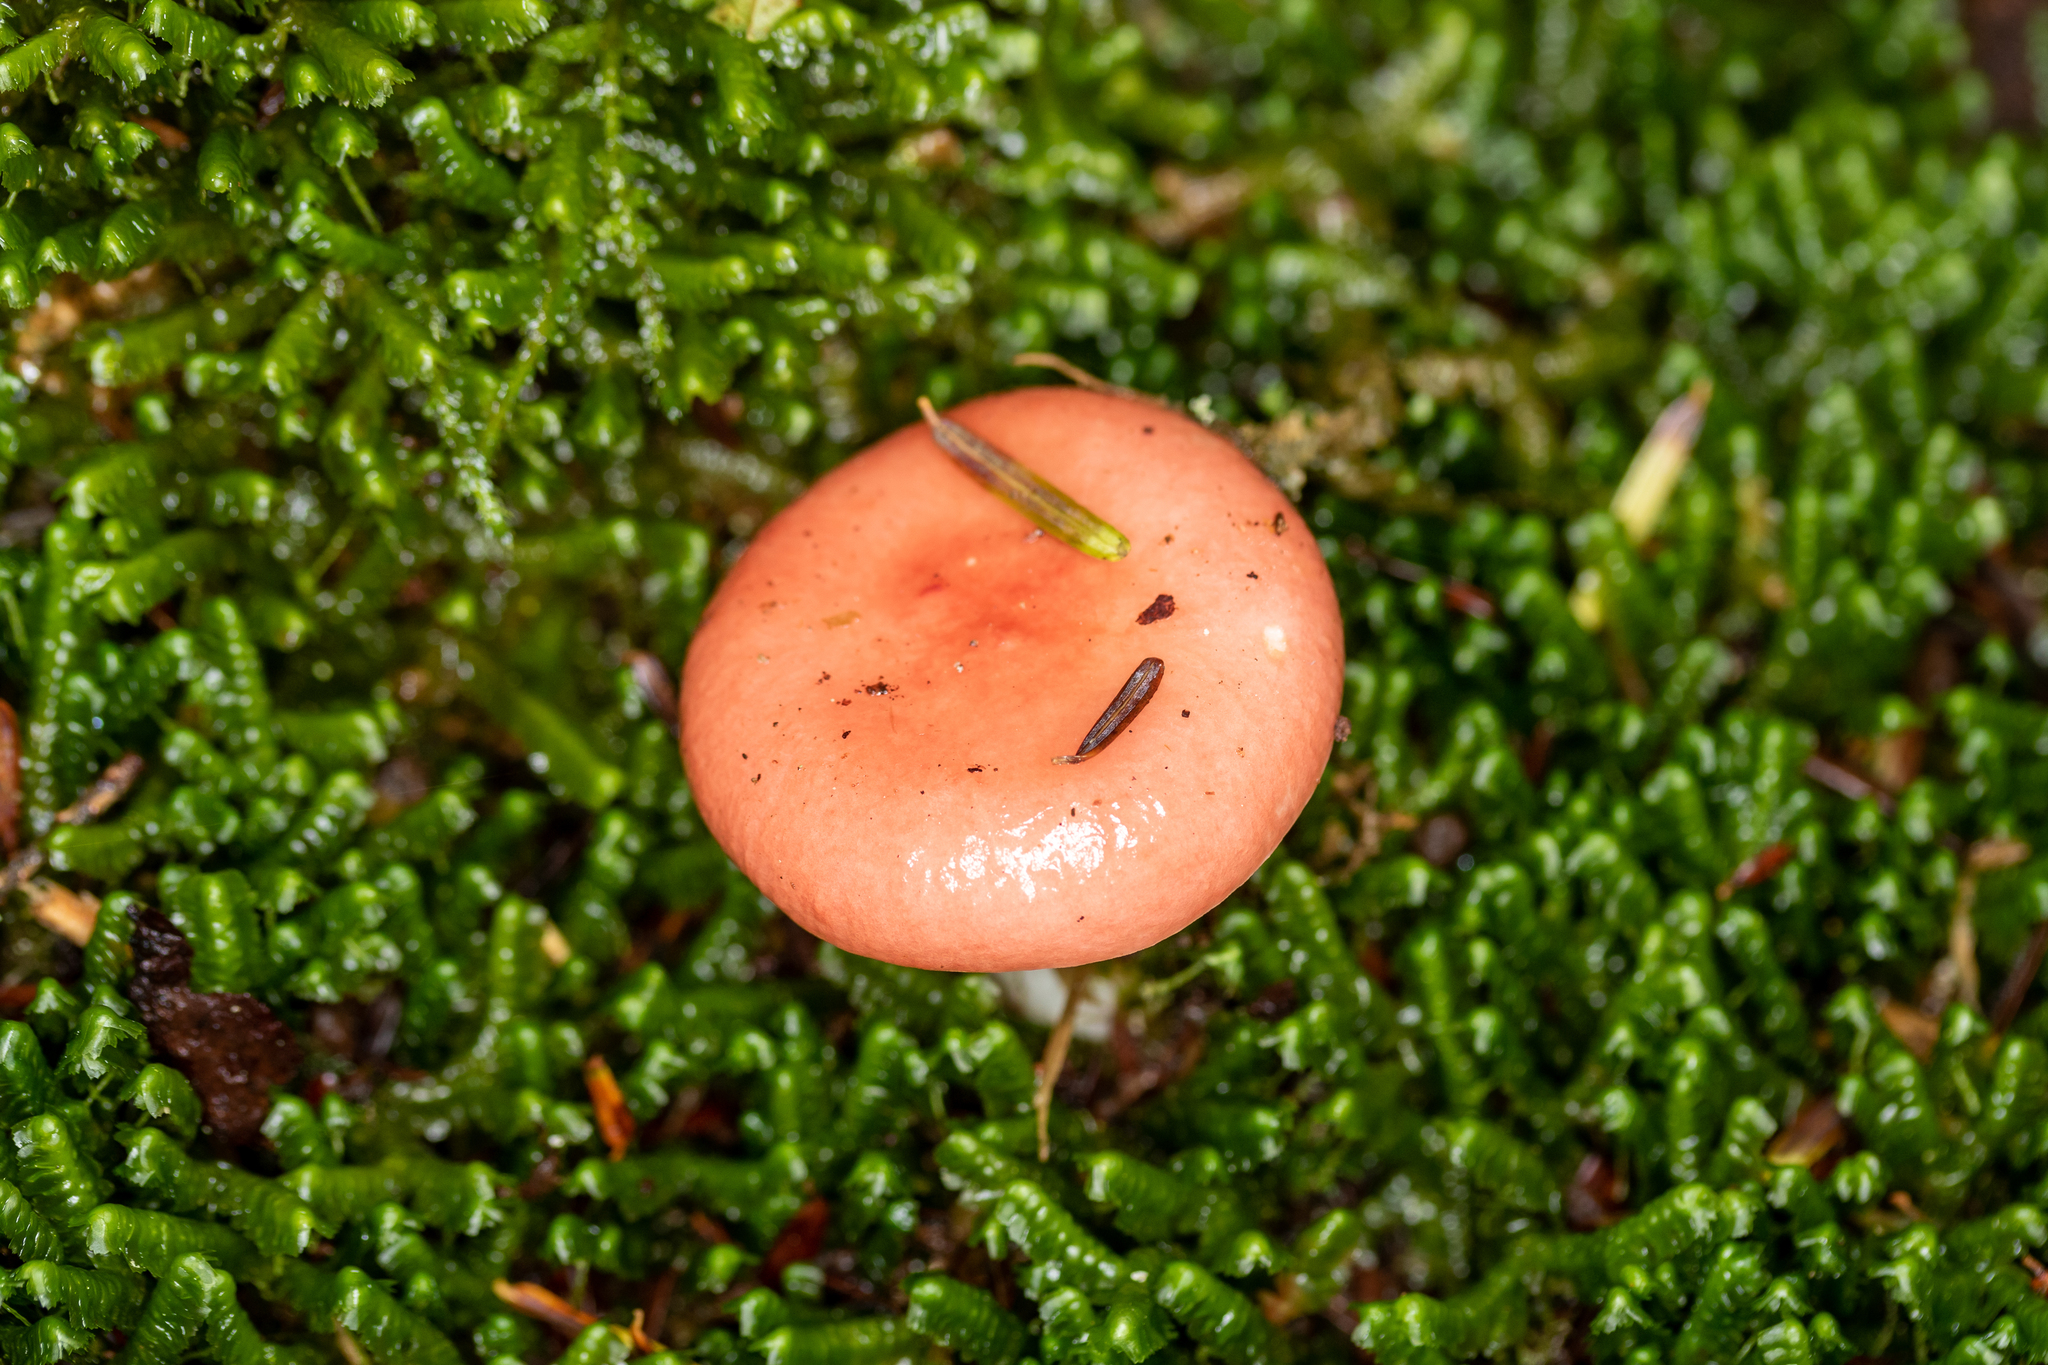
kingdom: Fungi
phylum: Basidiomycota
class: Agaricomycetes
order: Russulales
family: Russulaceae
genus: Russula
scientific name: Russula silvestris
